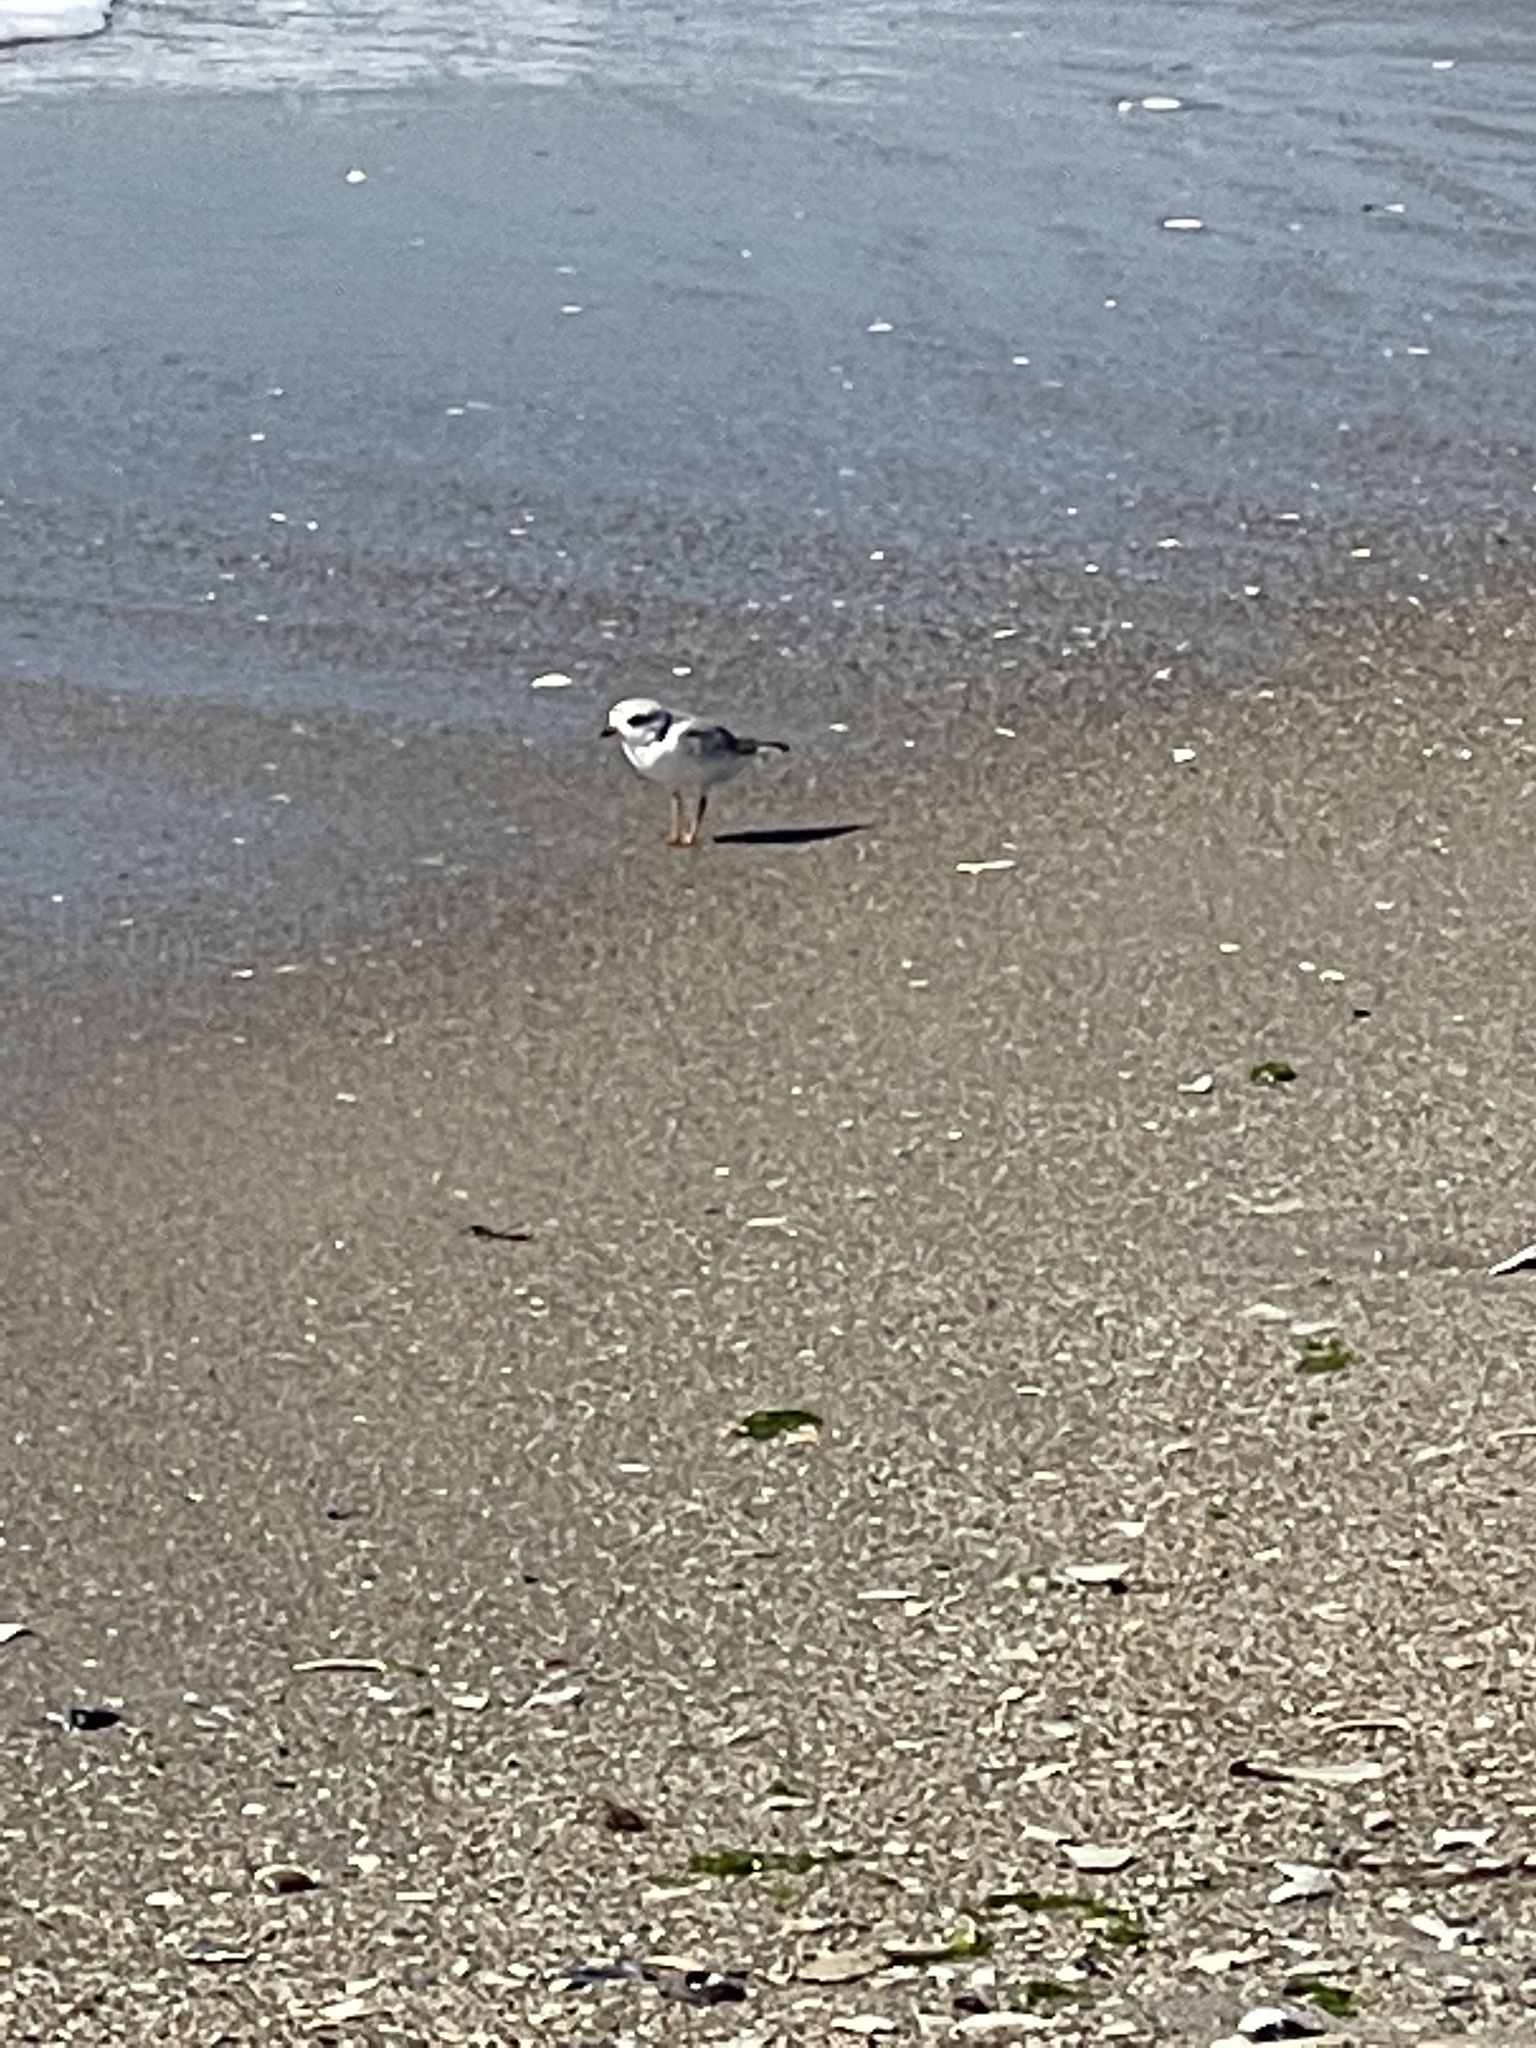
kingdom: Animalia
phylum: Chordata
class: Aves
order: Charadriiformes
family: Charadriidae
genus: Charadrius
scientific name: Charadrius melodus
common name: Piping plover
